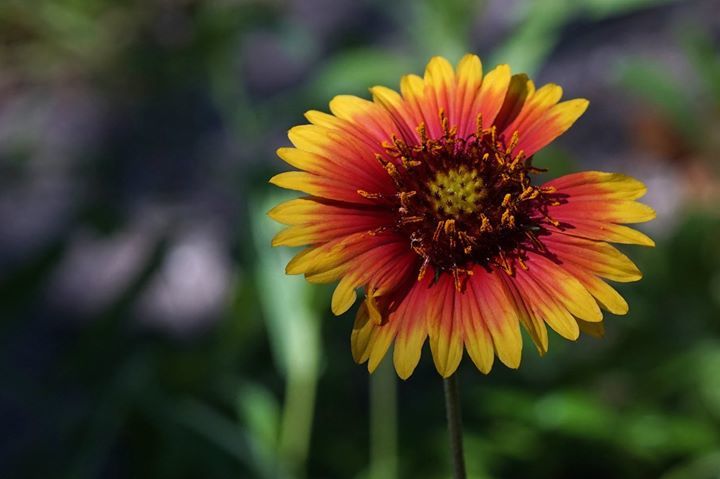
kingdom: Plantae
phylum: Tracheophyta
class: Magnoliopsida
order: Asterales
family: Asteraceae
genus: Gaillardia
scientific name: Gaillardia pulchella
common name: Firewheel
